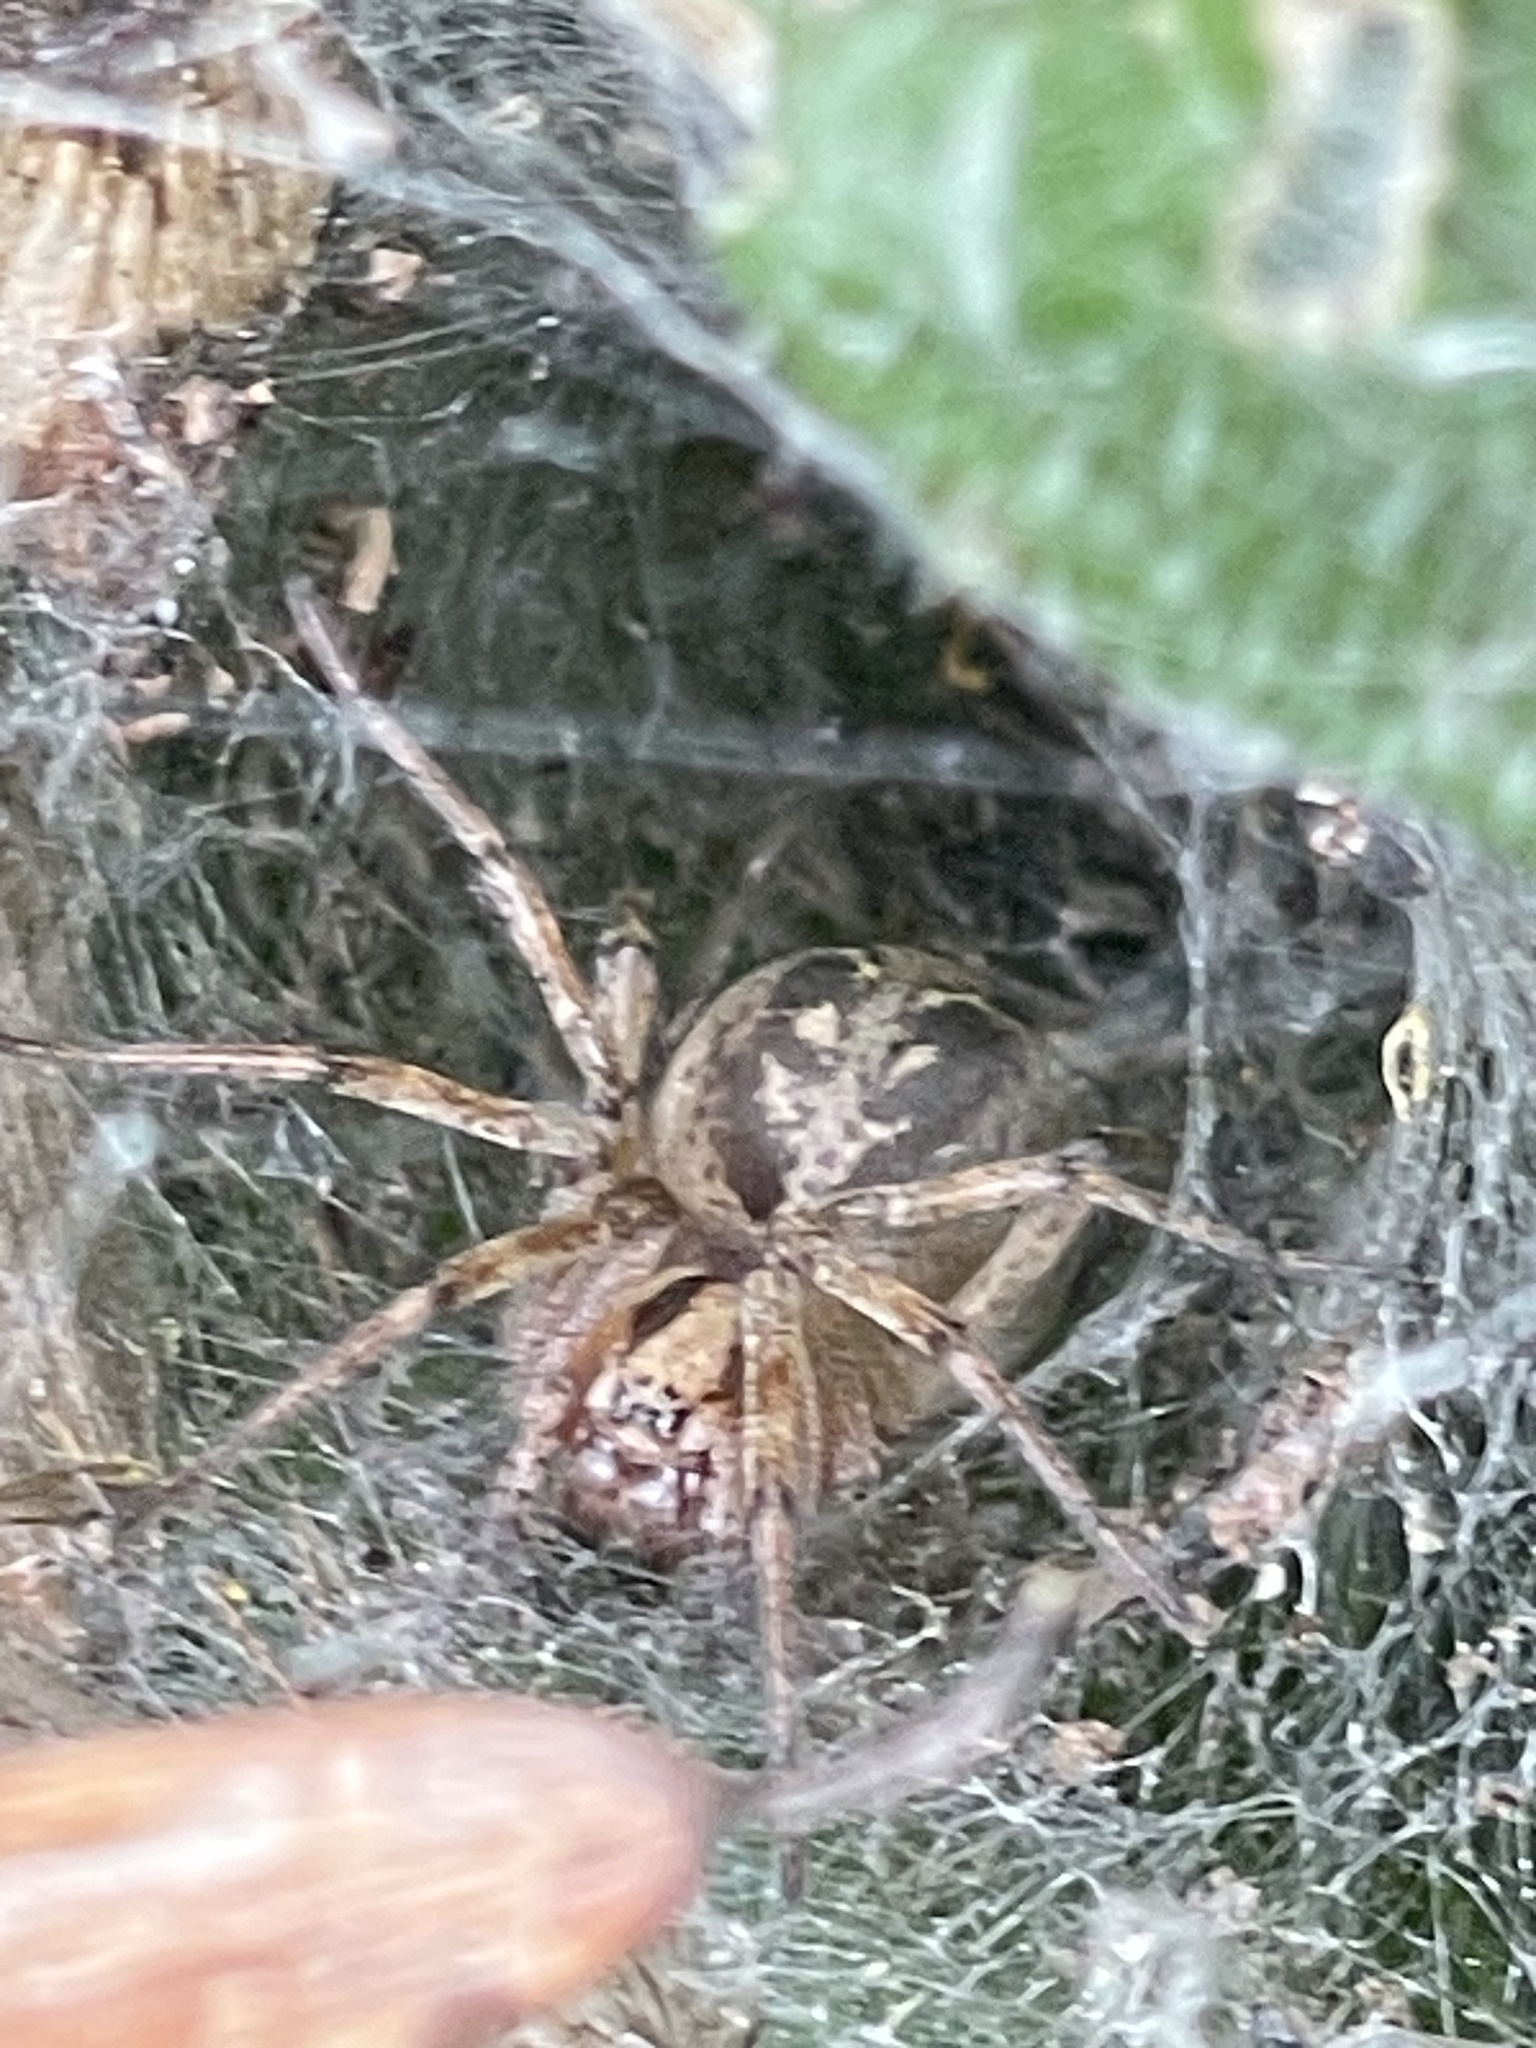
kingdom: Animalia
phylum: Arthropoda
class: Arachnida
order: Araneae
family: Agelenidae
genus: Agelena
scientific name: Agelena labyrinthica
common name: Labyrinth spider
